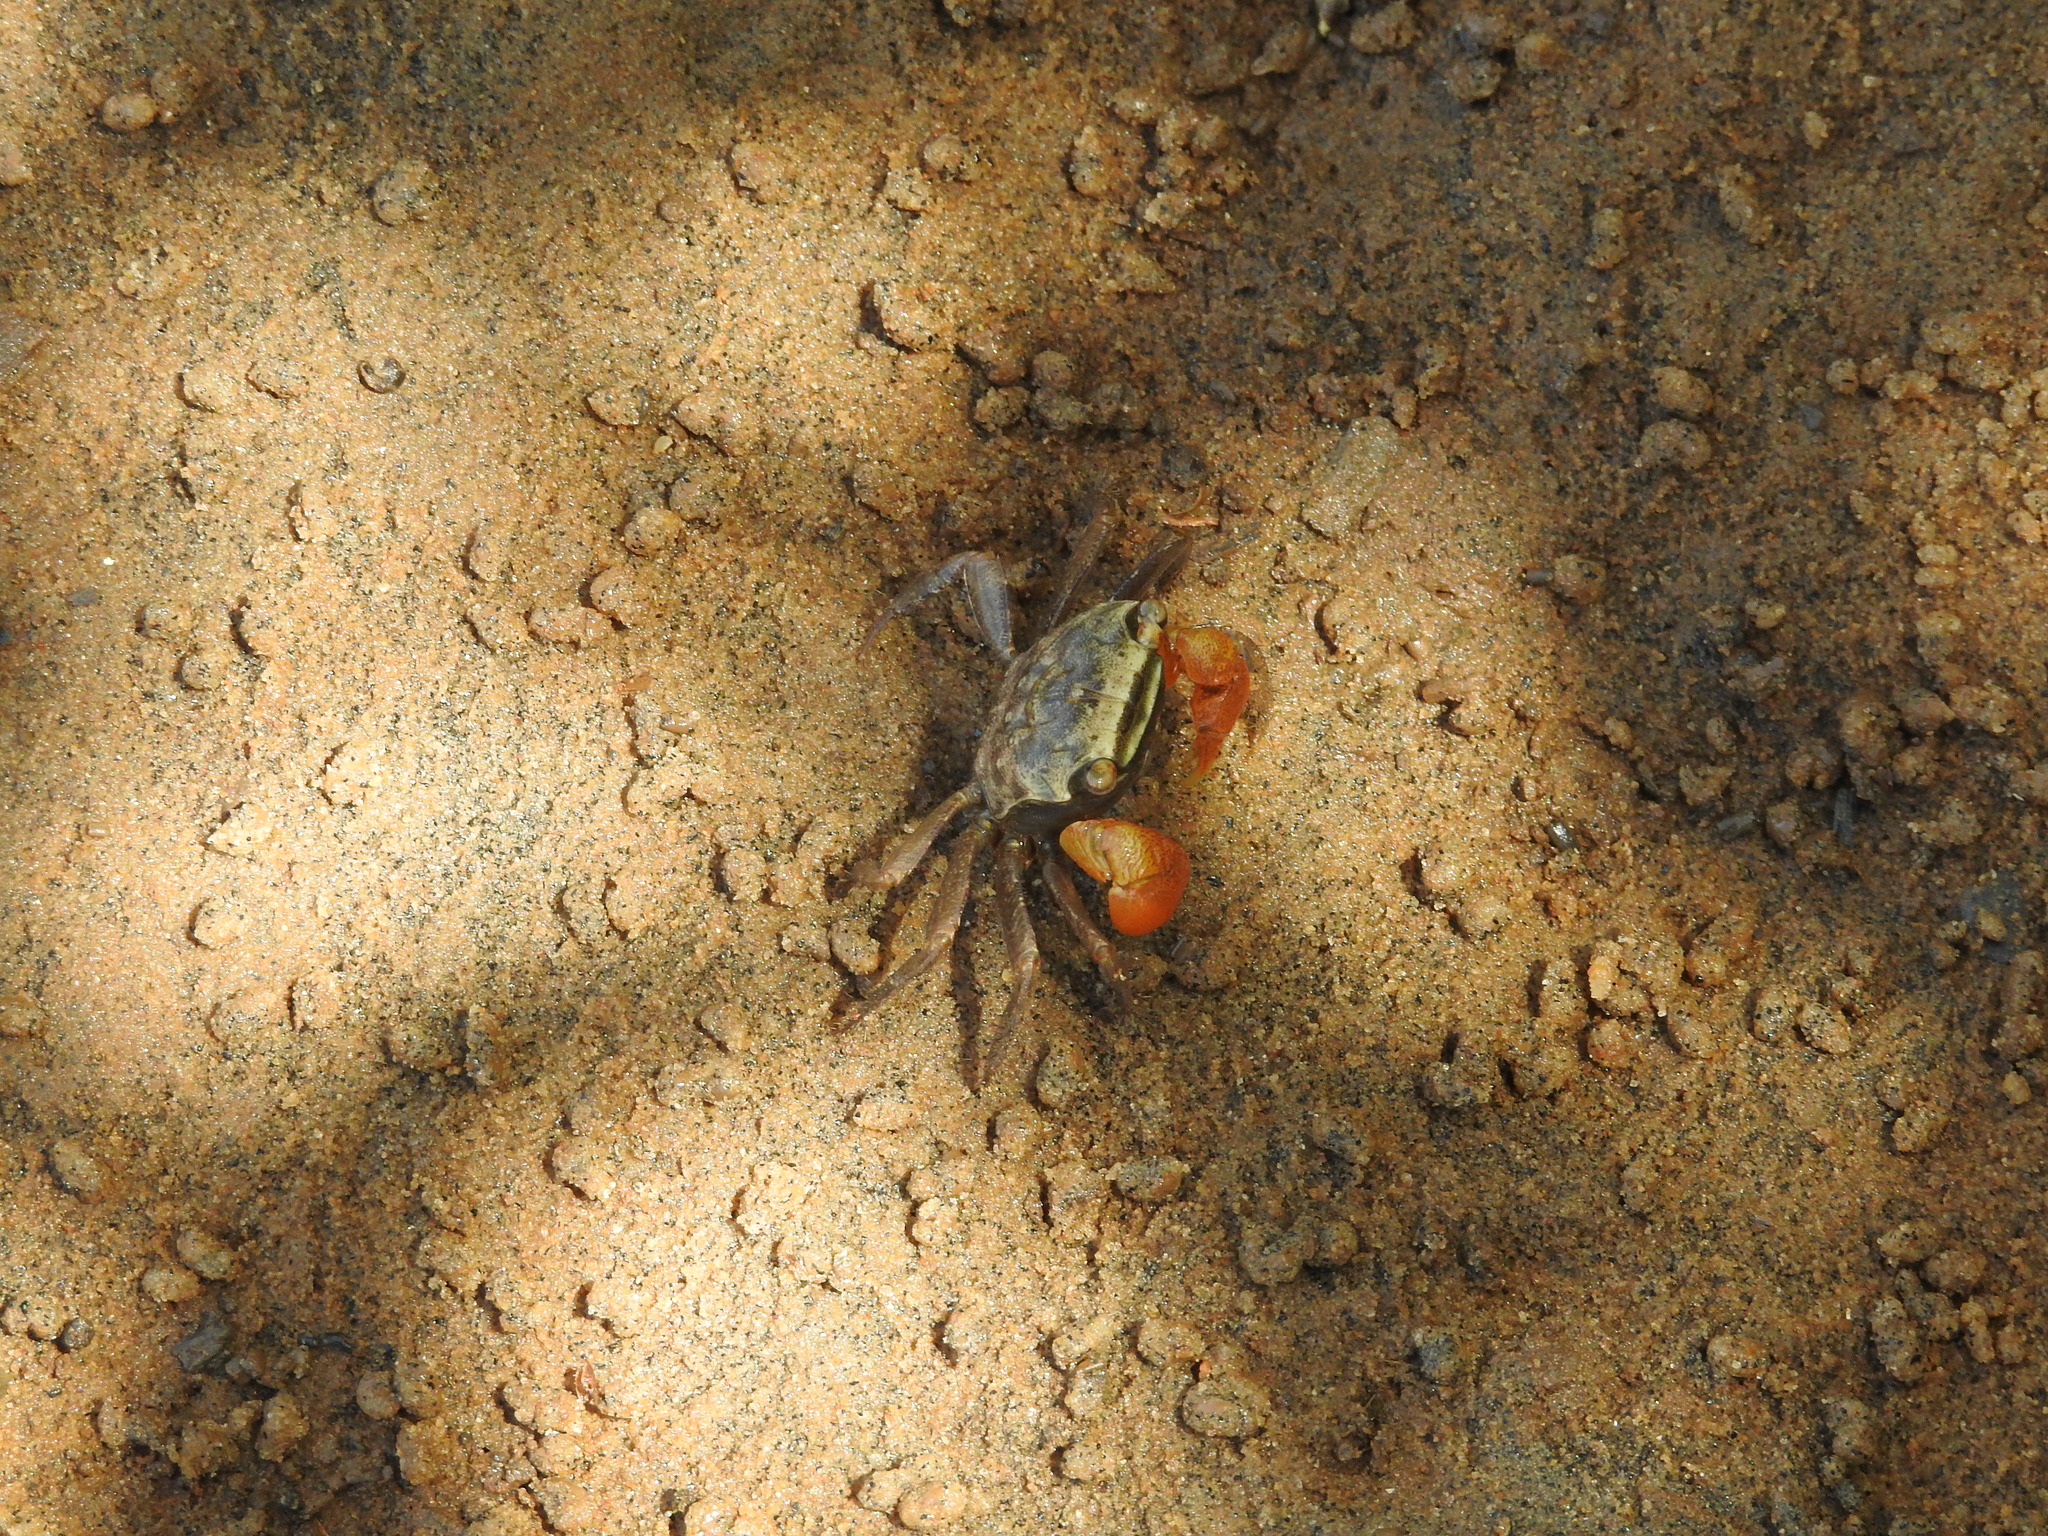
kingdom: Animalia
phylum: Arthropoda
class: Malacostraca
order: Decapoda
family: Sesarmidae
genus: Cristarma
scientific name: Cristarma eulimene
